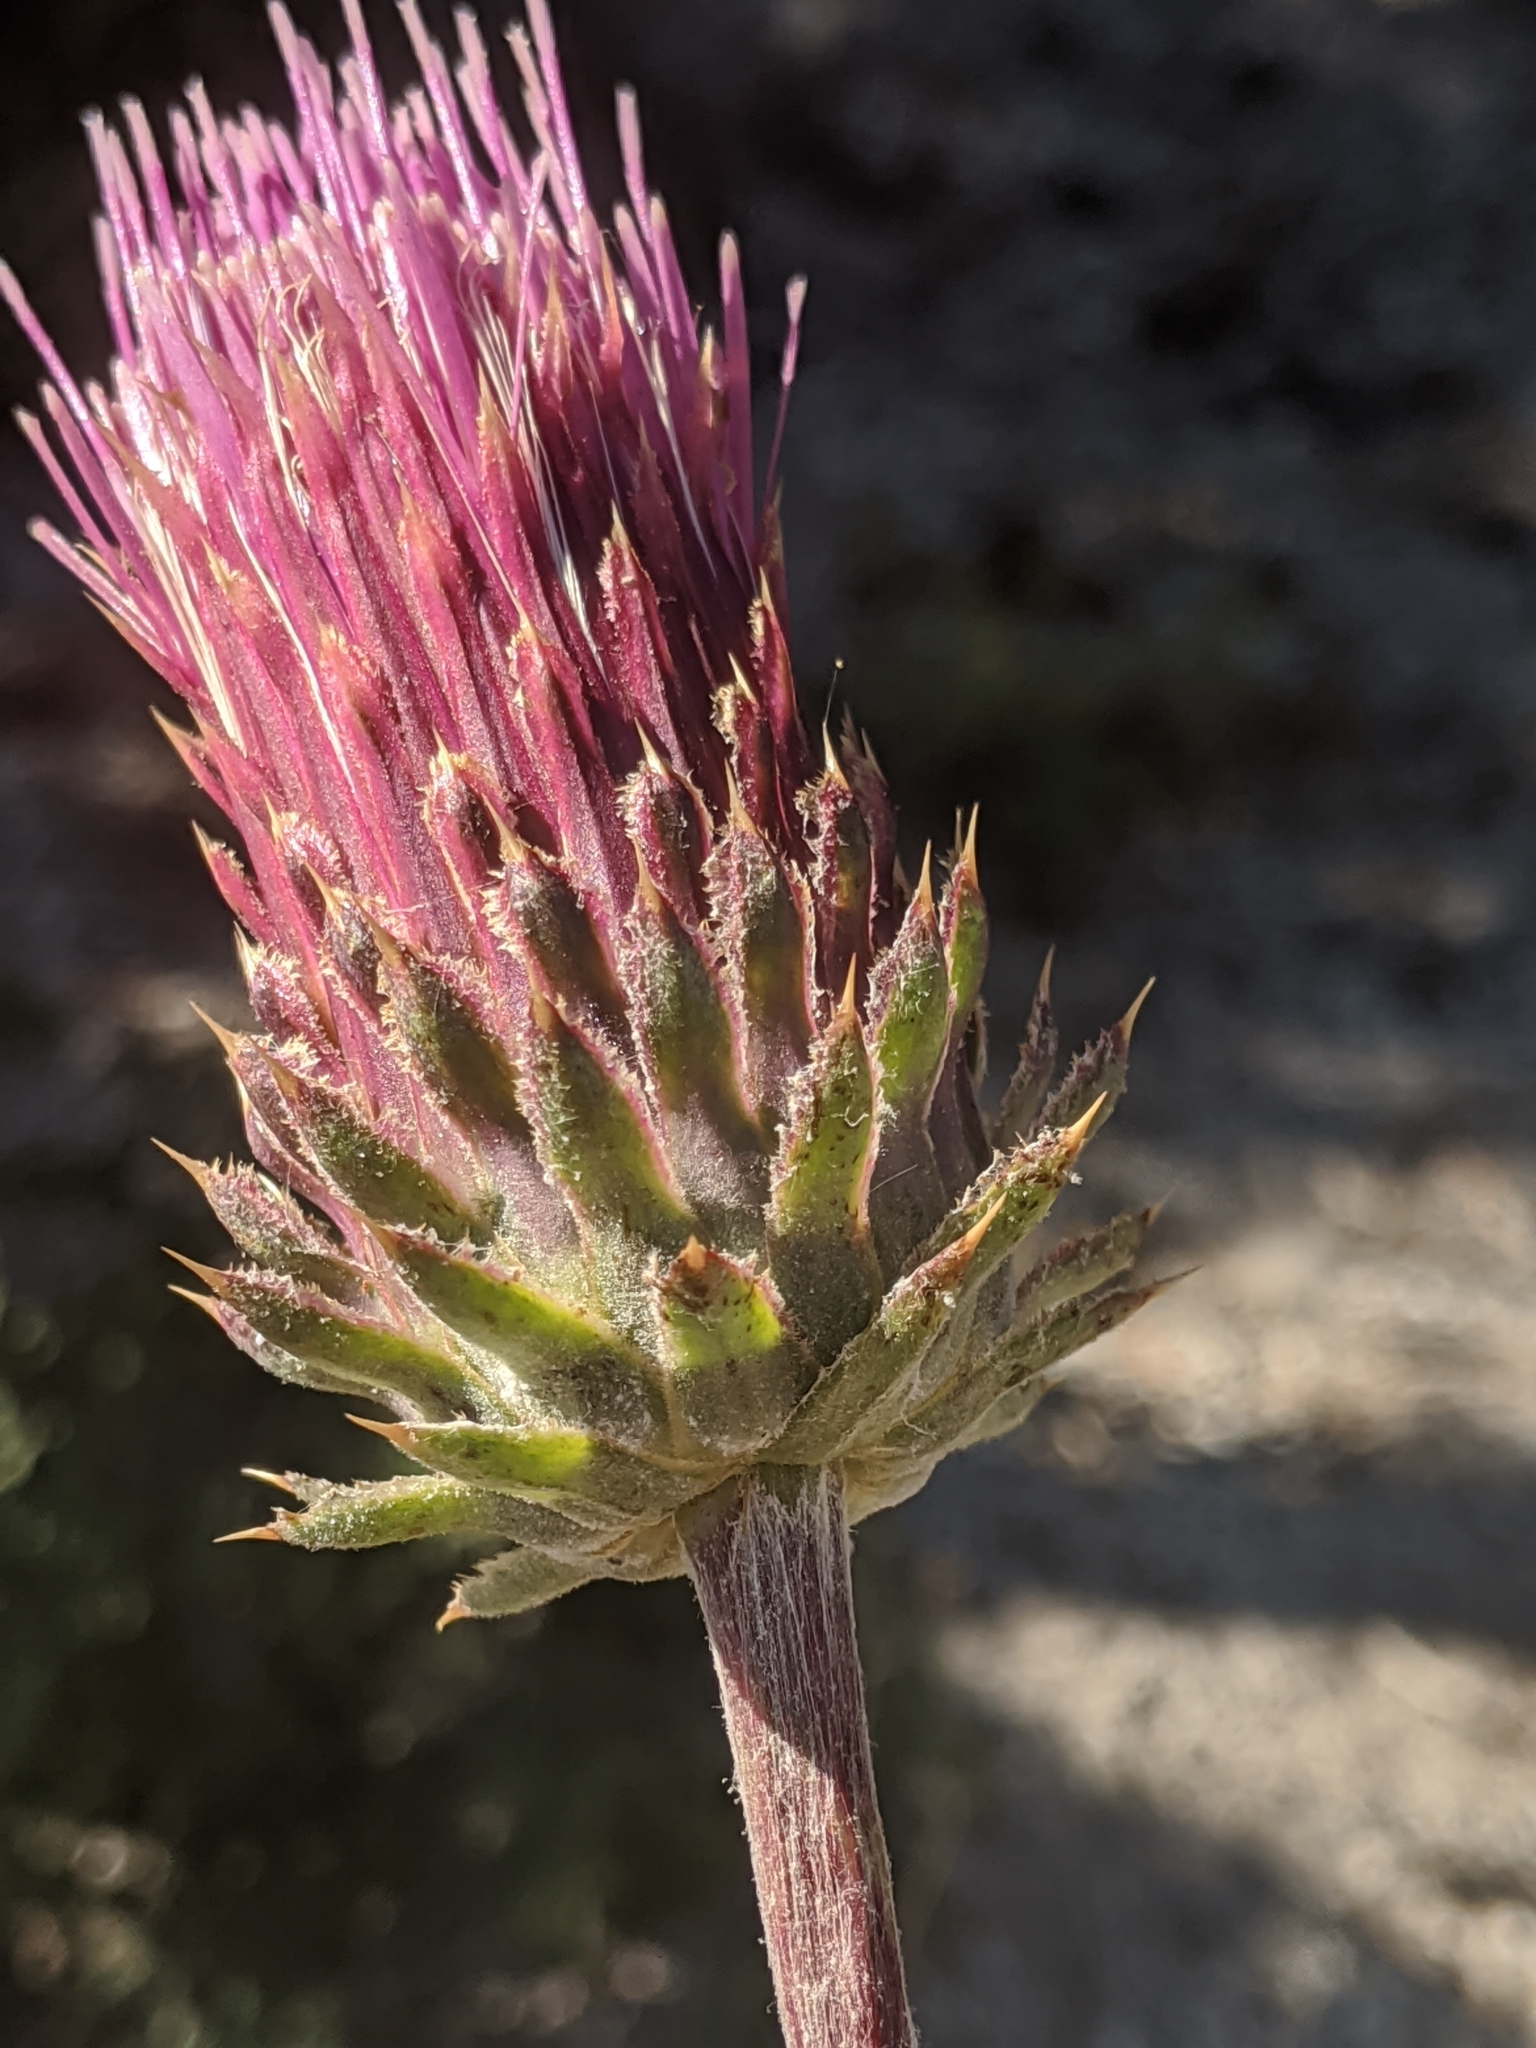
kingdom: Plantae
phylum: Tracheophyta
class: Magnoliopsida
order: Asterales
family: Asteraceae
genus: Cirsium
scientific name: Cirsium andersonii
